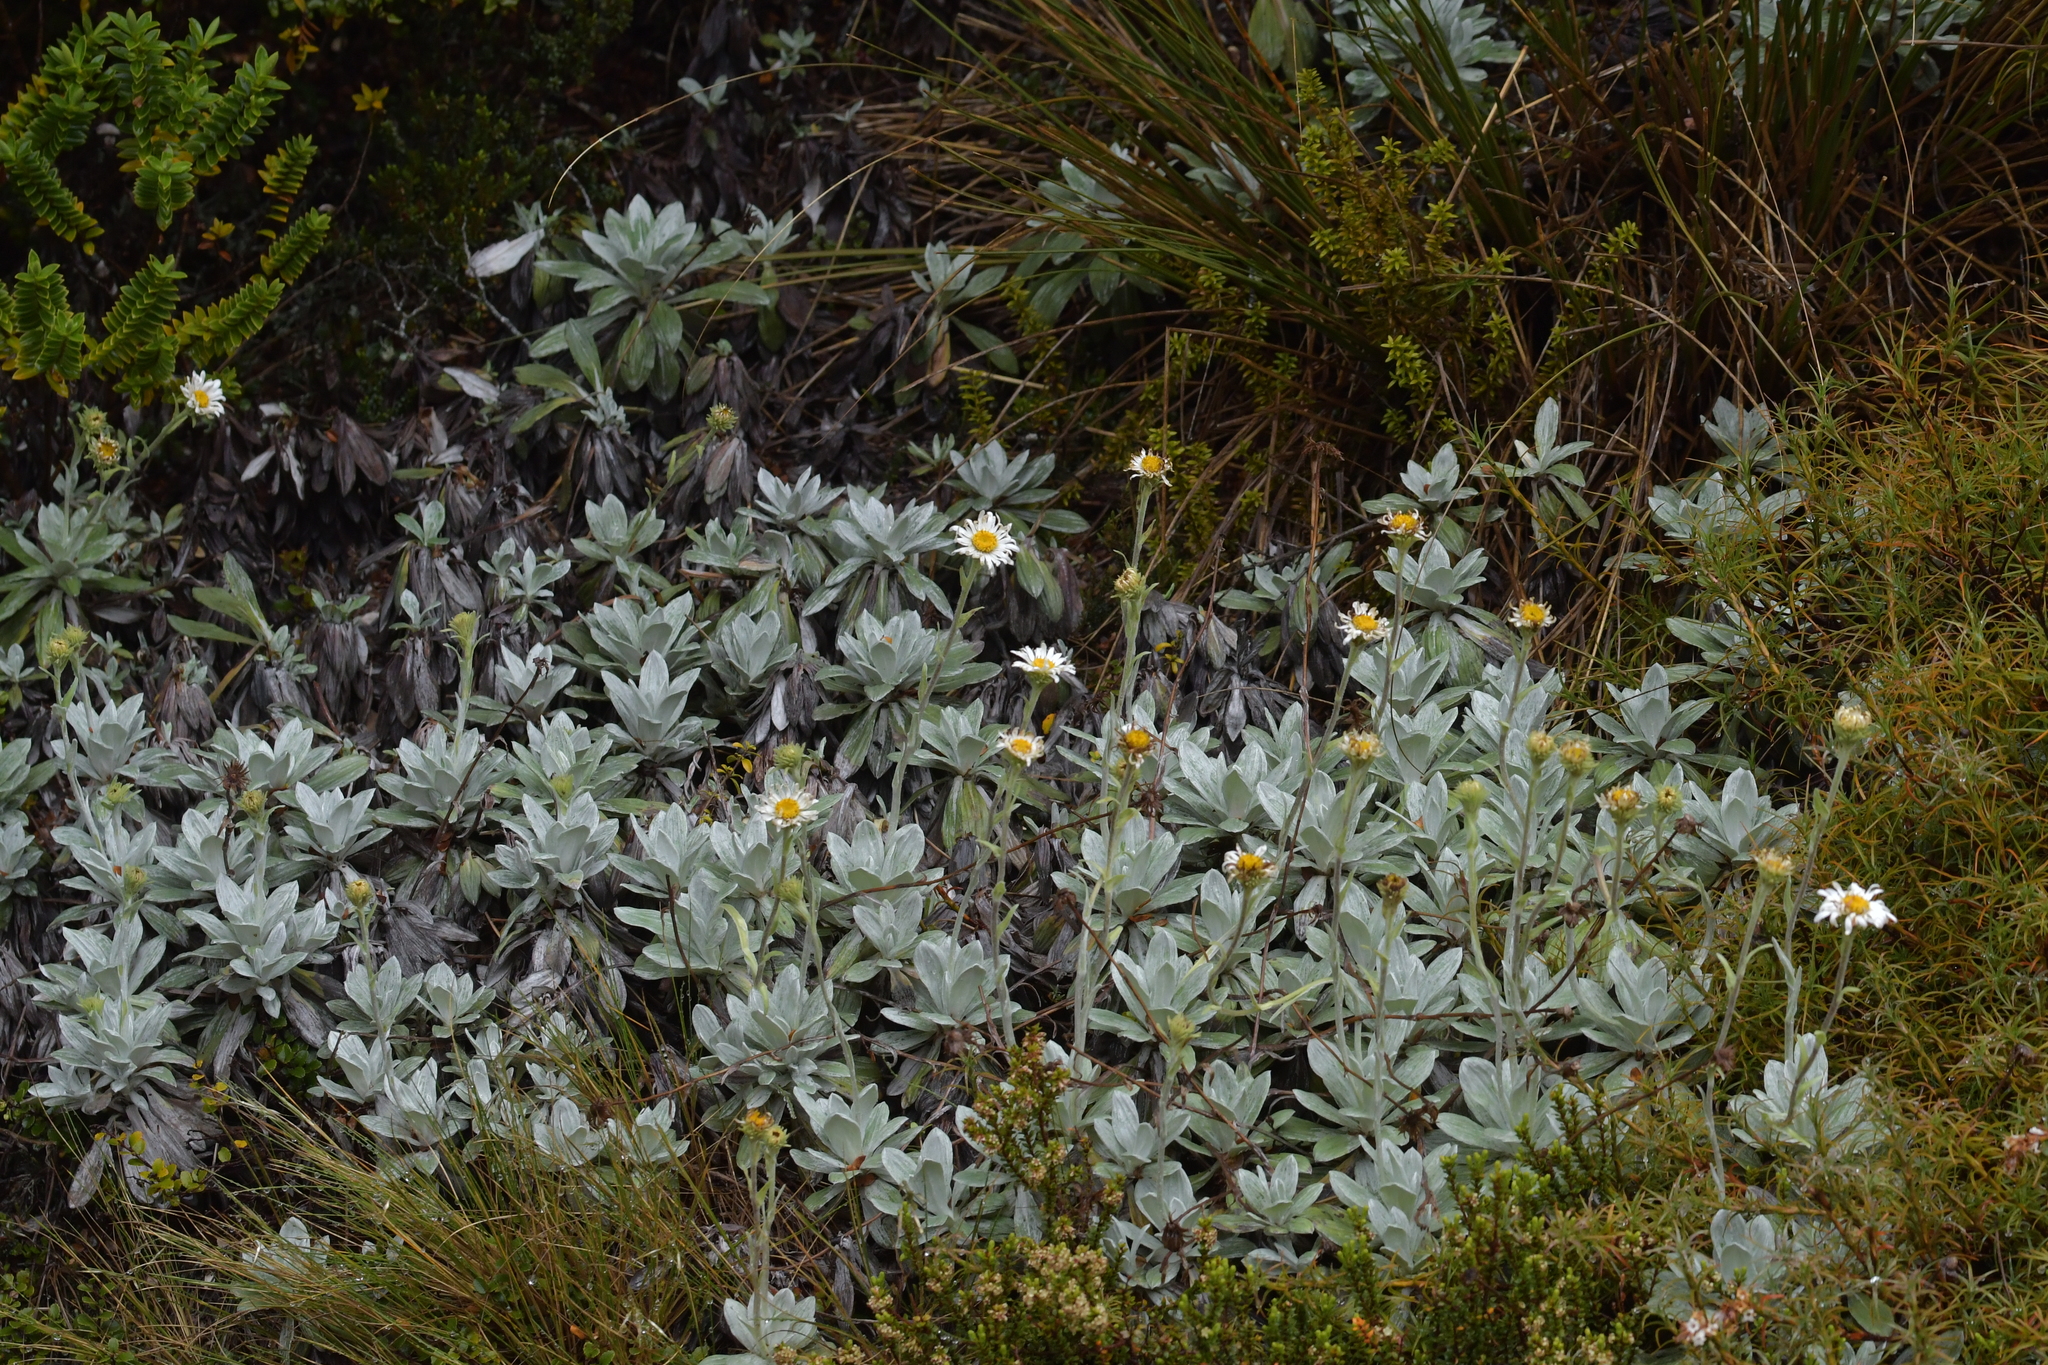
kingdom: Plantae
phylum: Tracheophyta
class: Magnoliopsida
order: Asterales
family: Asteraceae
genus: Celmisia
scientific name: Celmisia incana
